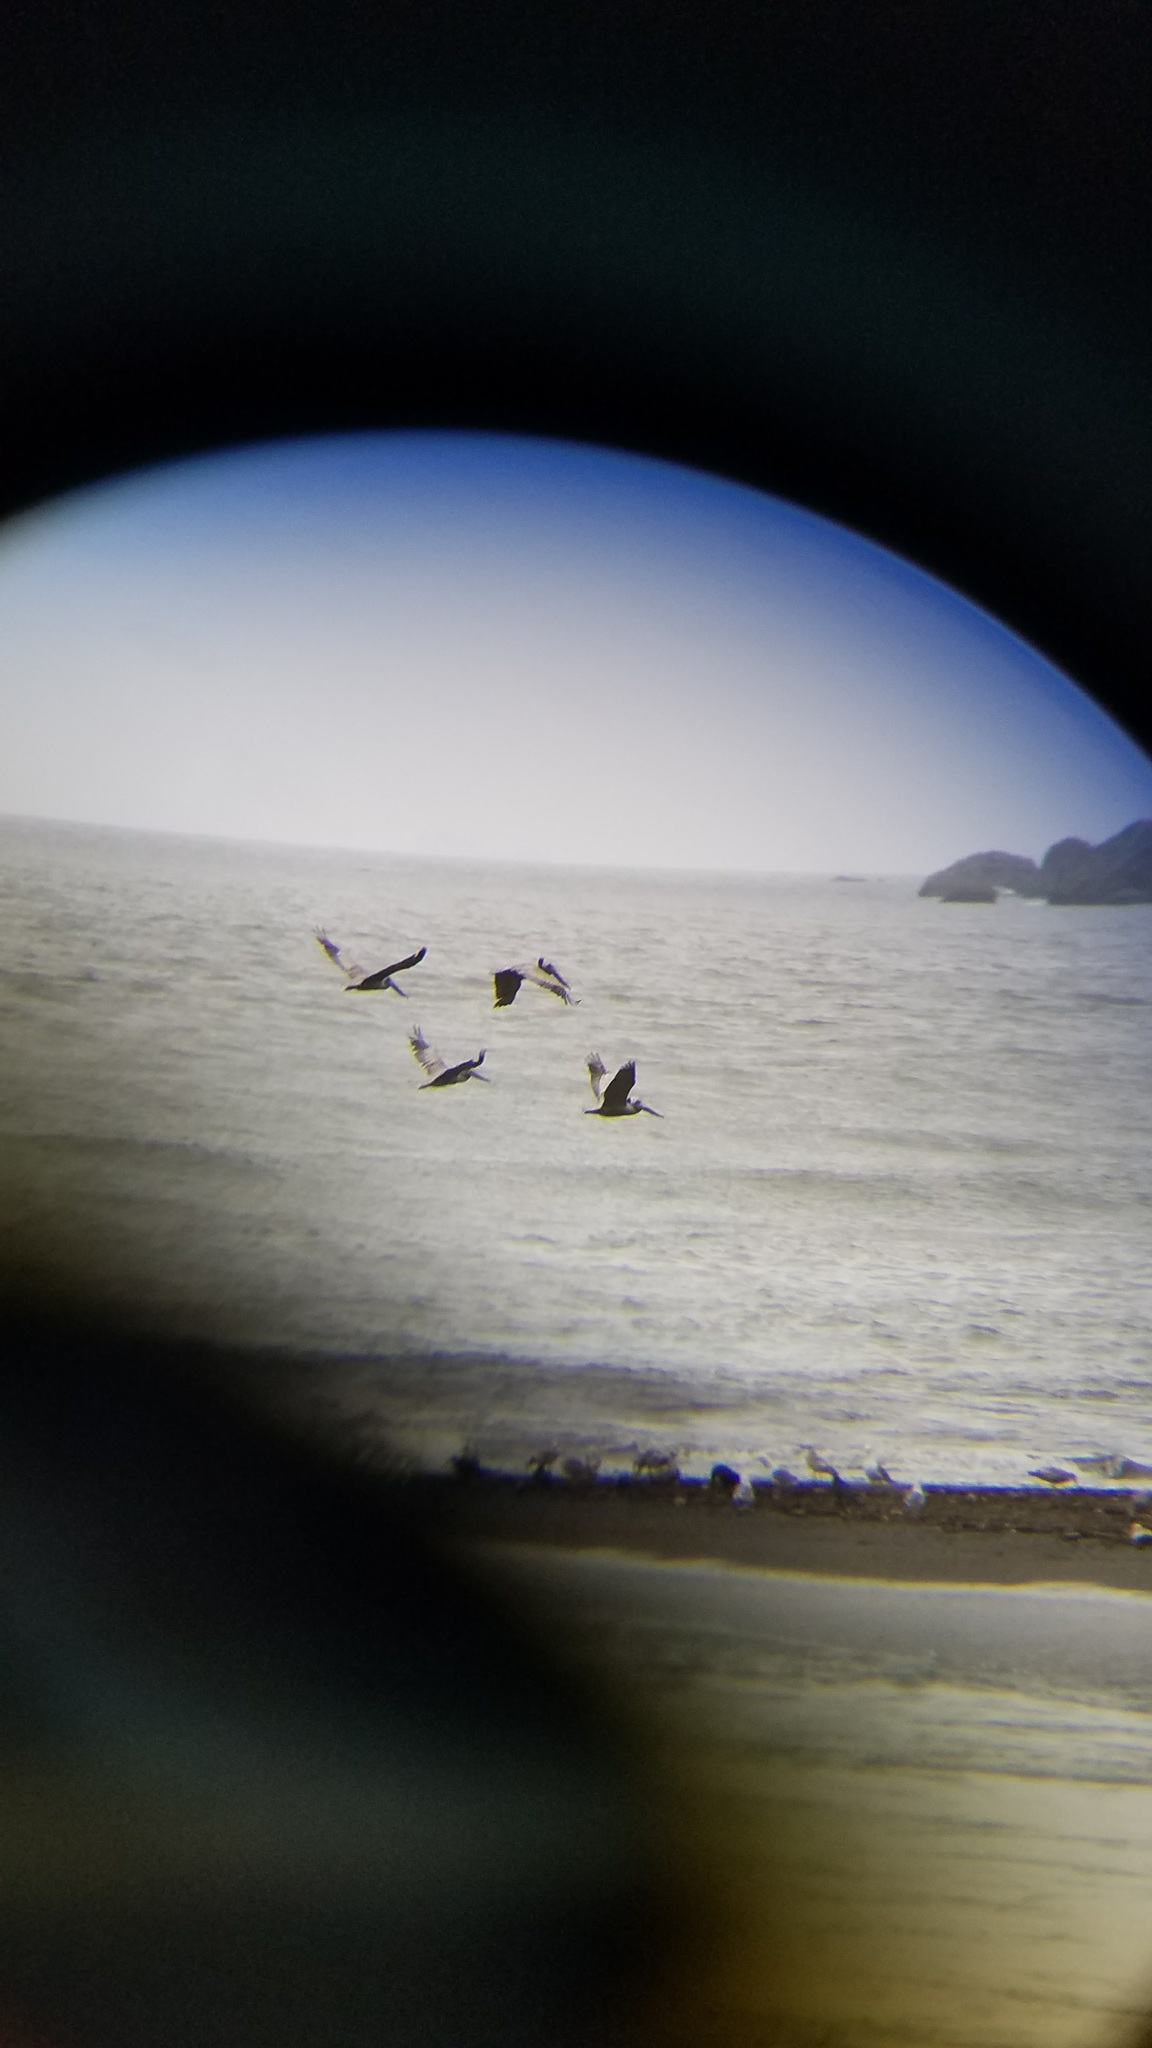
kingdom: Animalia
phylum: Chordata
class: Aves
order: Pelecaniformes
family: Pelecanidae
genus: Pelecanus
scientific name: Pelecanus occidentalis
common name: Brown pelican
